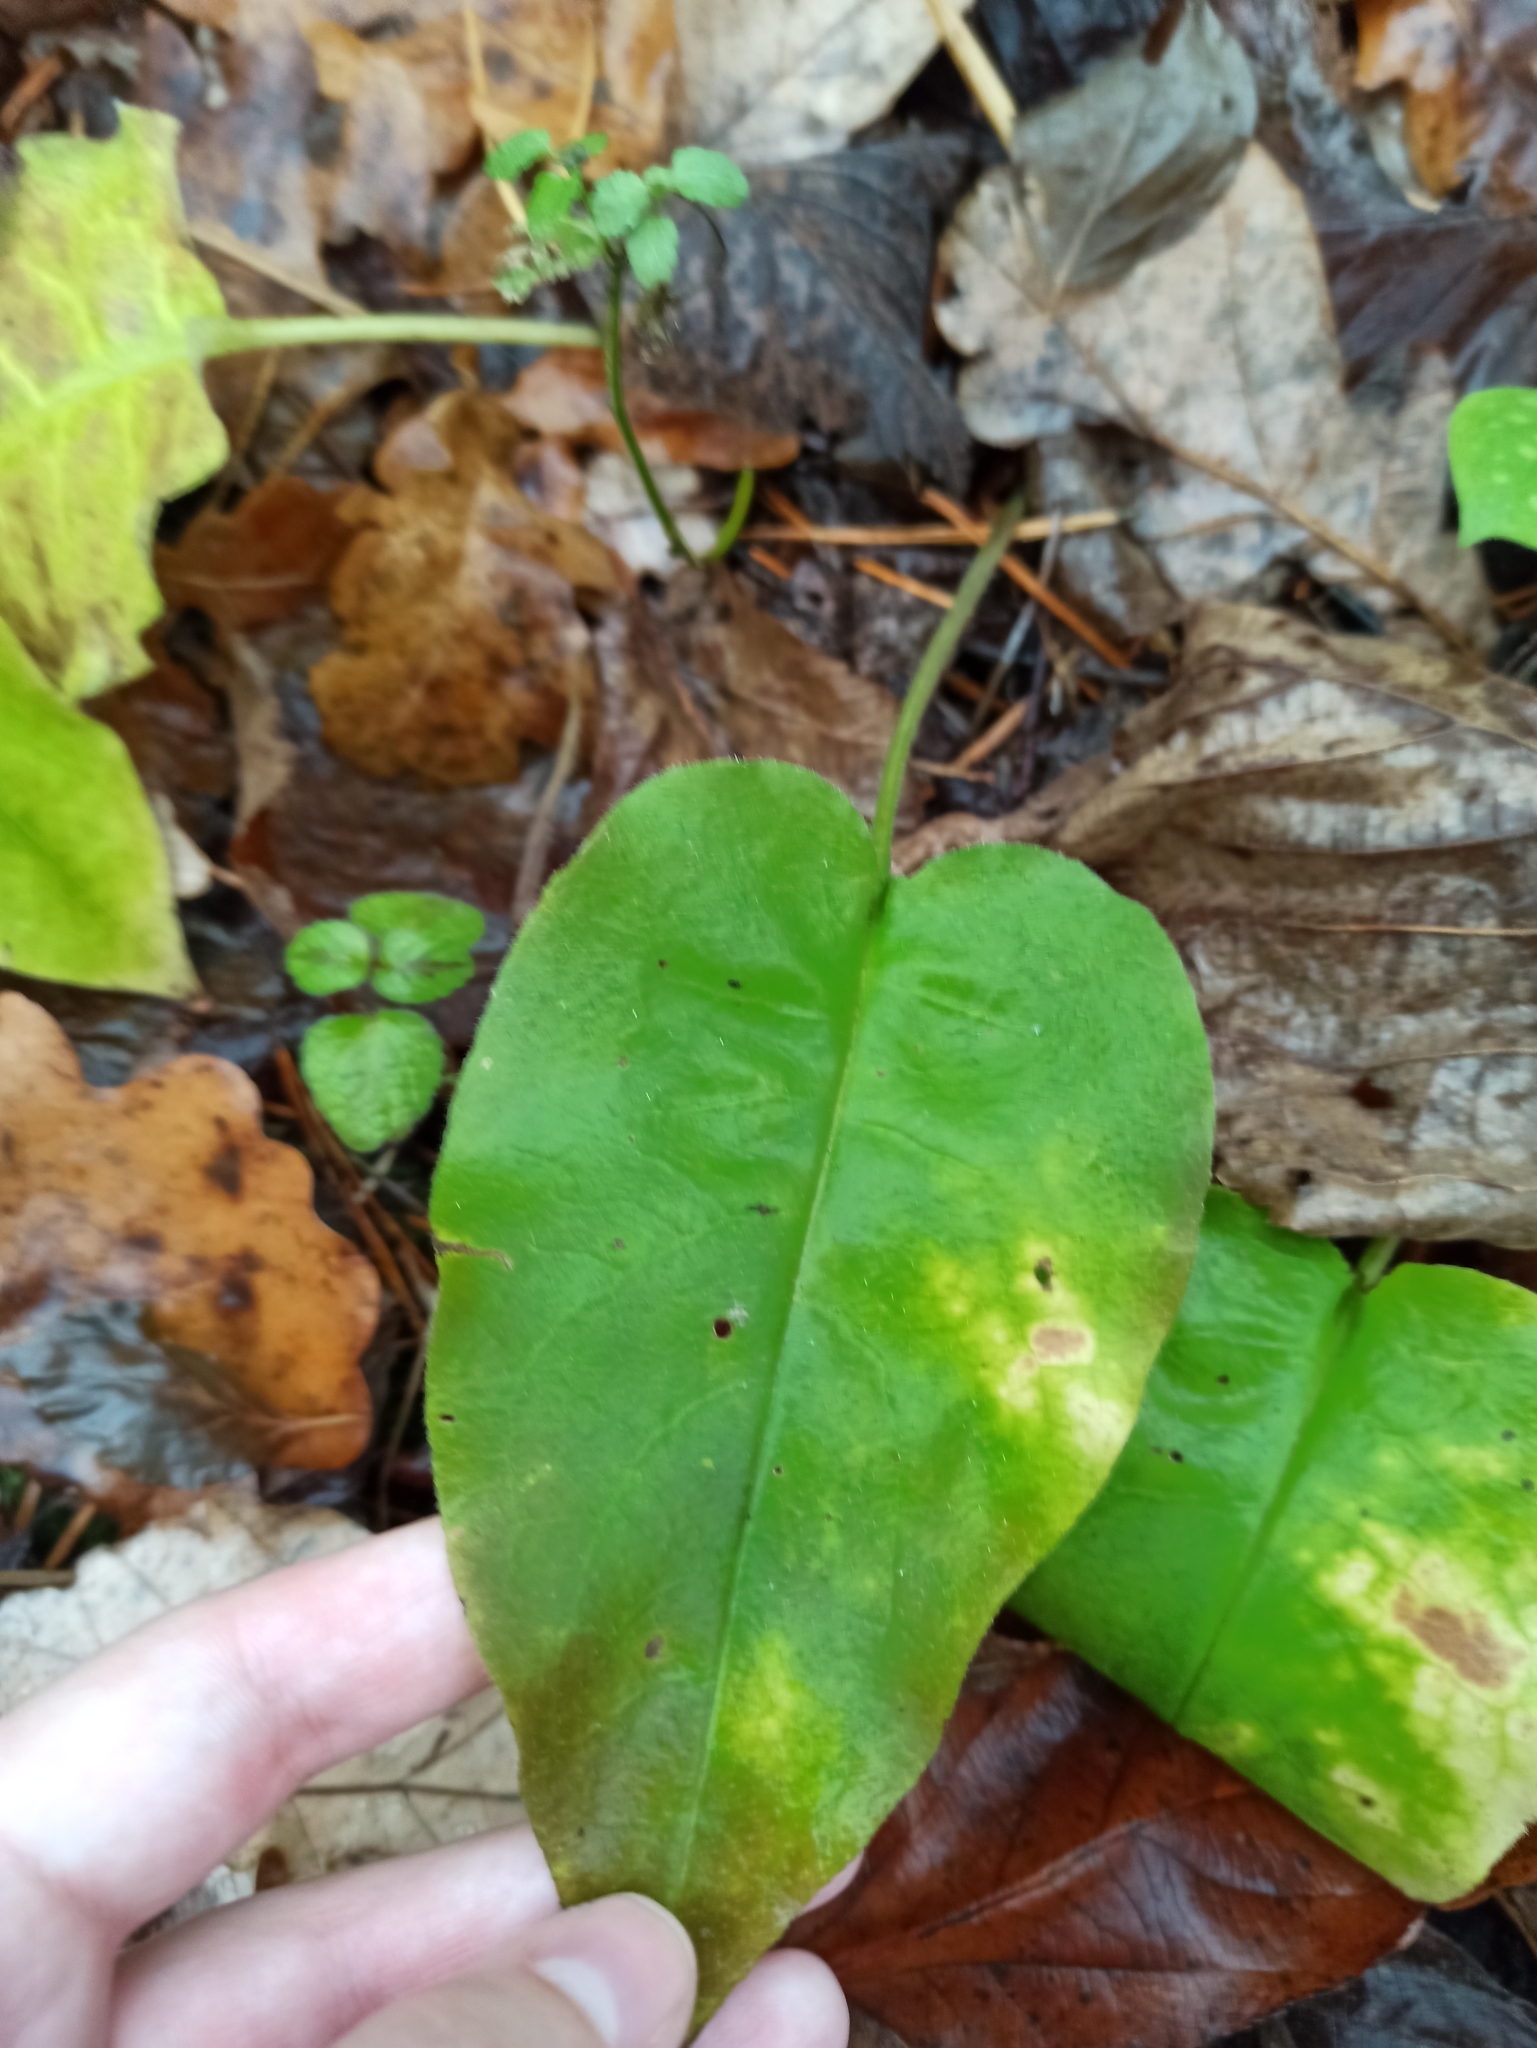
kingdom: Plantae
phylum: Tracheophyta
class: Magnoliopsida
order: Boraginales
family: Boraginaceae
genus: Pulmonaria
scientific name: Pulmonaria obscura
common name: Suffolk lungwort
